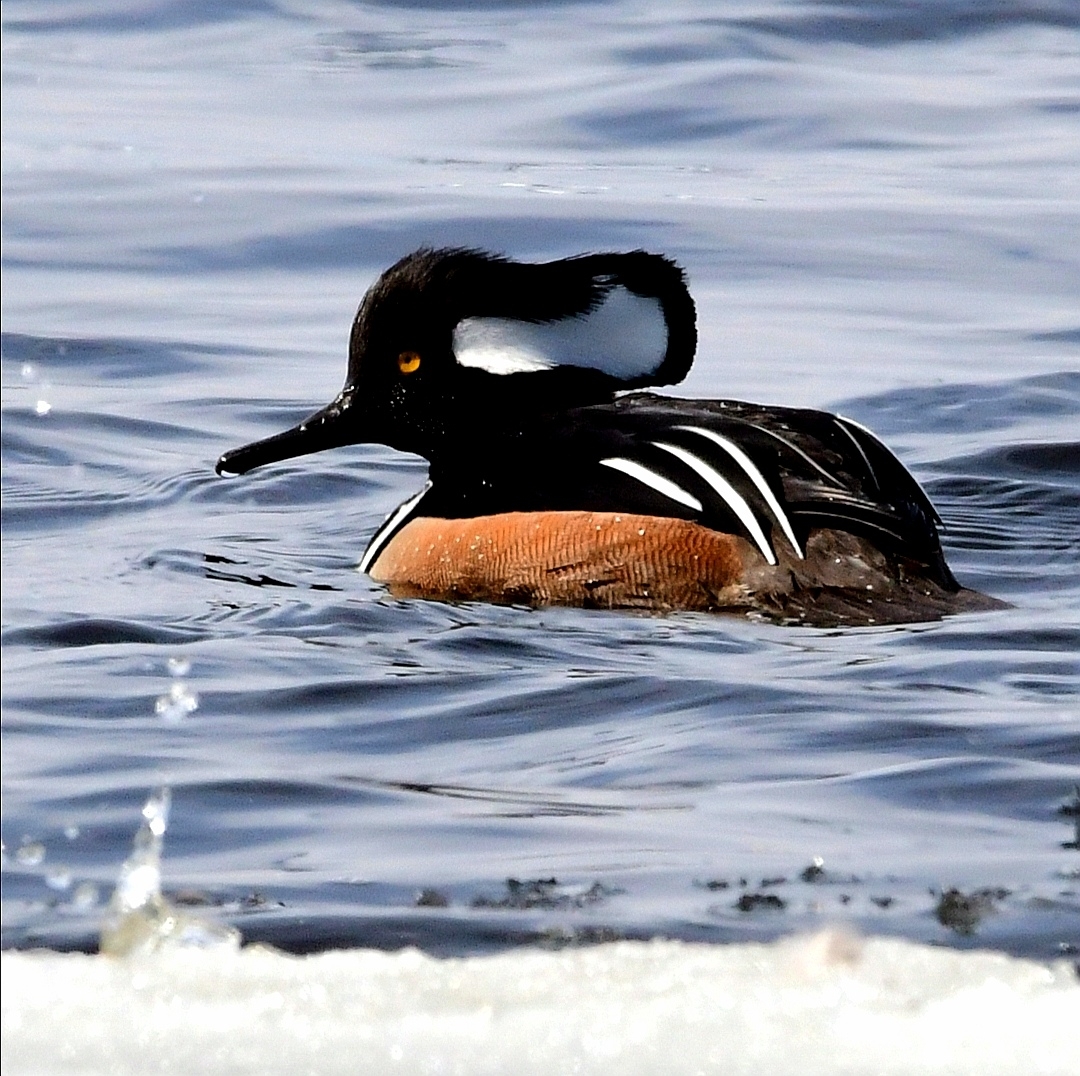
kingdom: Animalia
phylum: Chordata
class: Aves
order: Anseriformes
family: Anatidae
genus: Lophodytes
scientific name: Lophodytes cucullatus
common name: Hooded merganser
